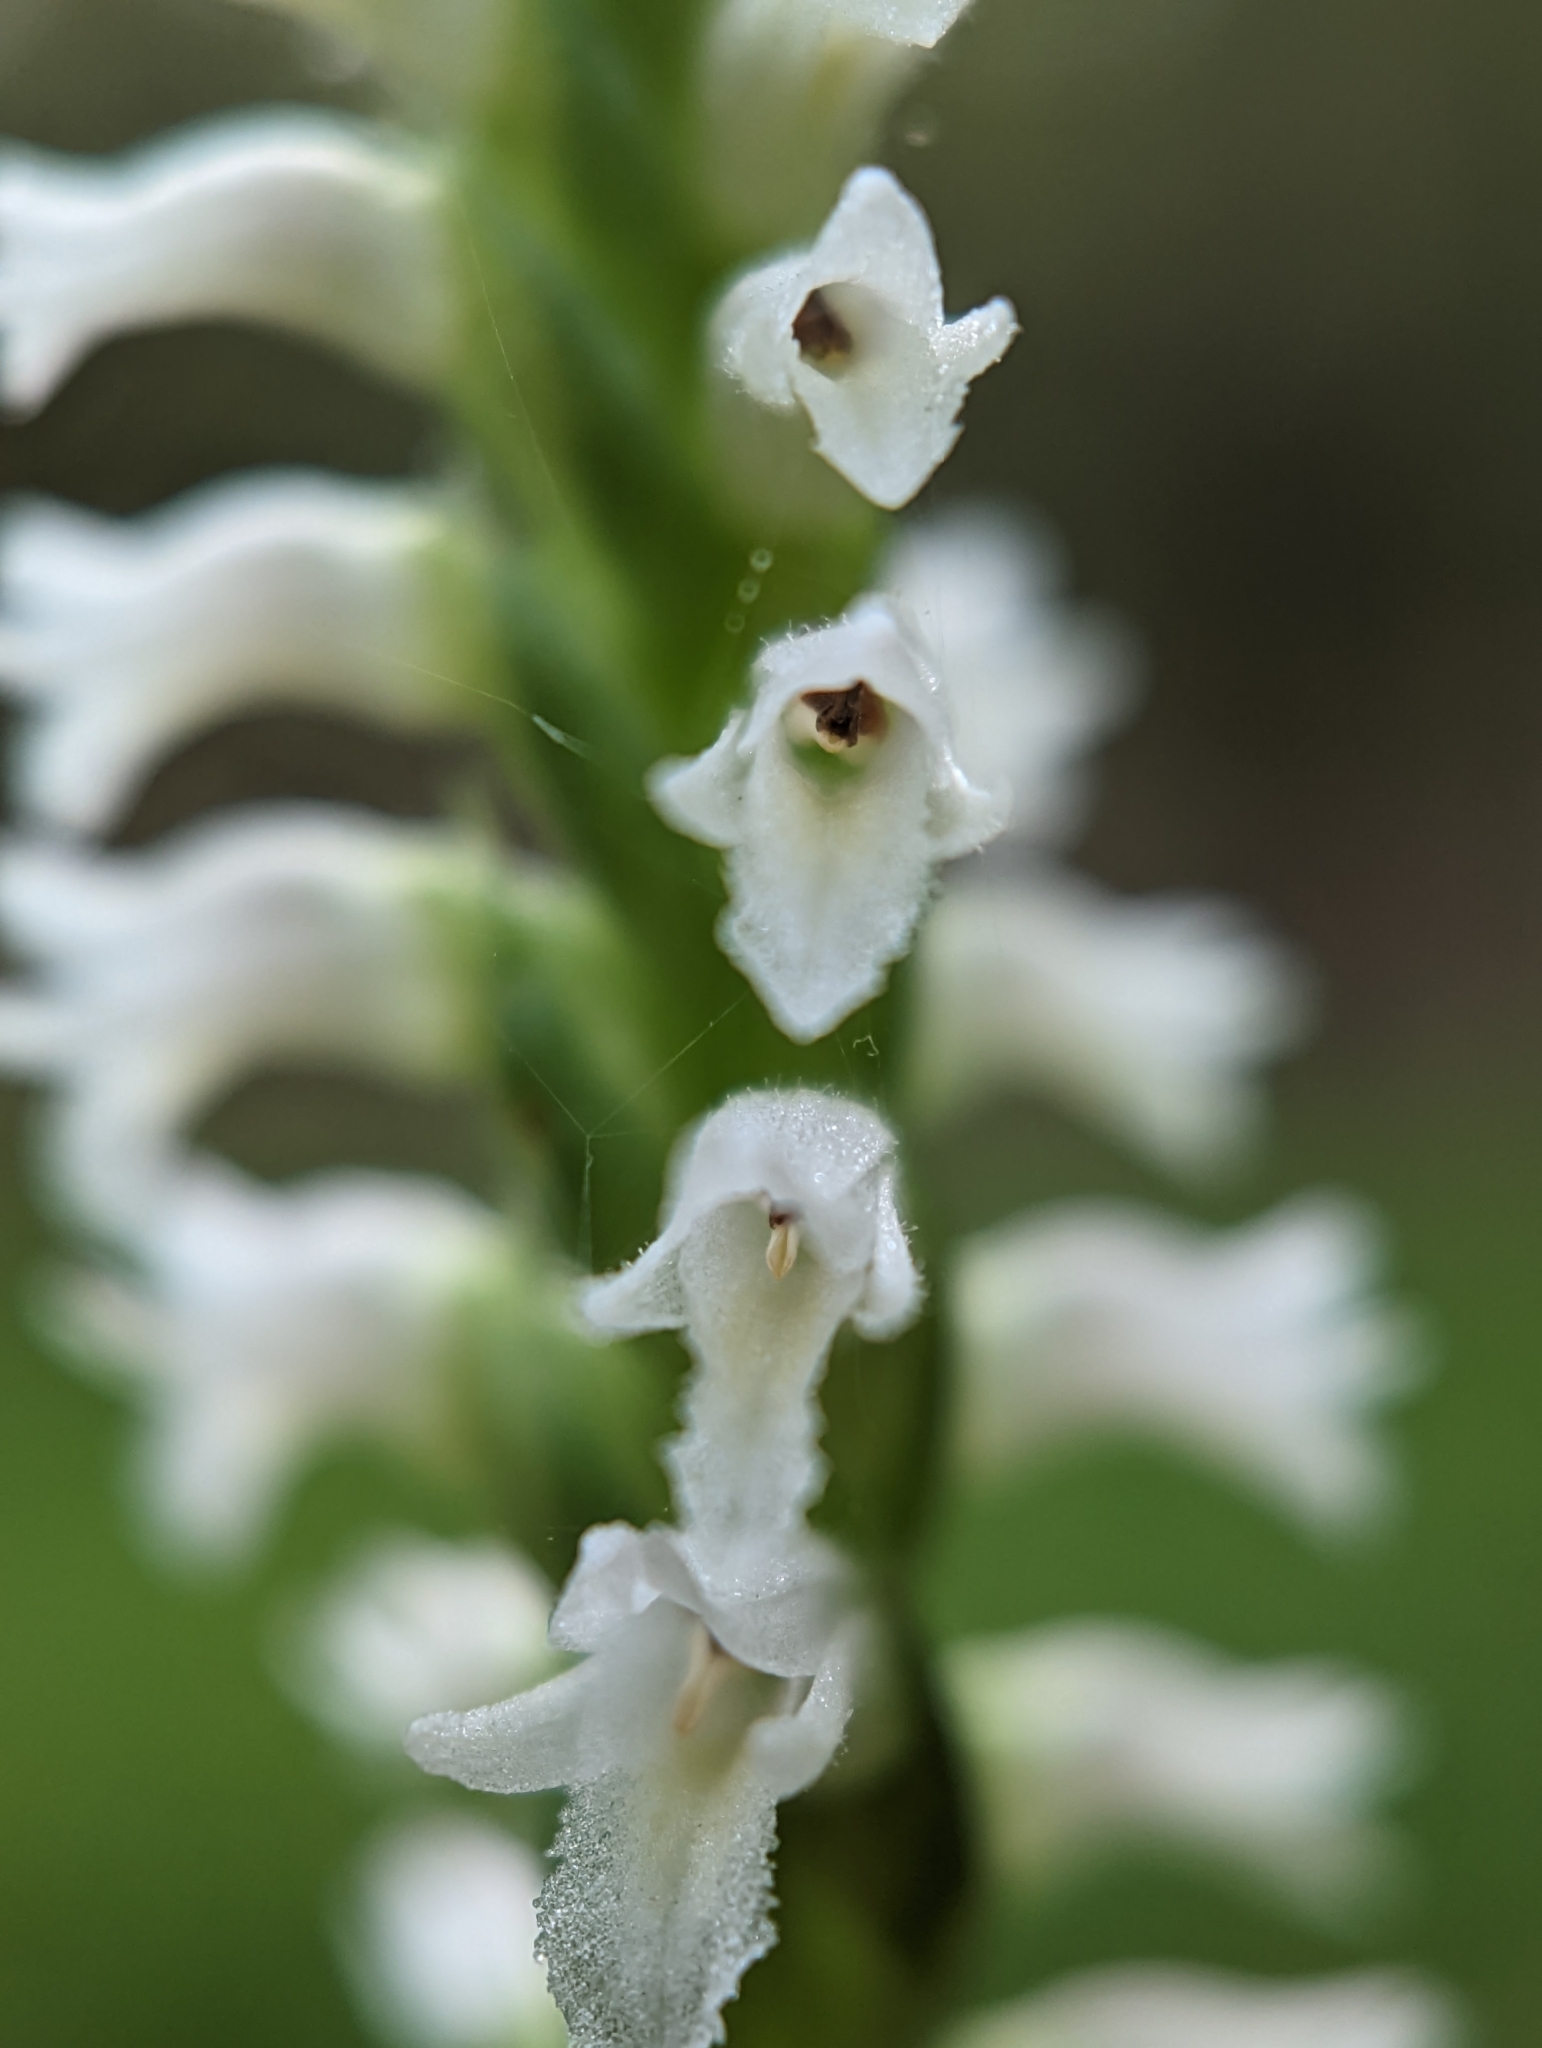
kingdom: Plantae
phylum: Tracheophyta
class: Liliopsida
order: Asparagales
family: Orchidaceae
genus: Spiranthes
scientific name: Spiranthes ovalis
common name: October ladies'-tresses
